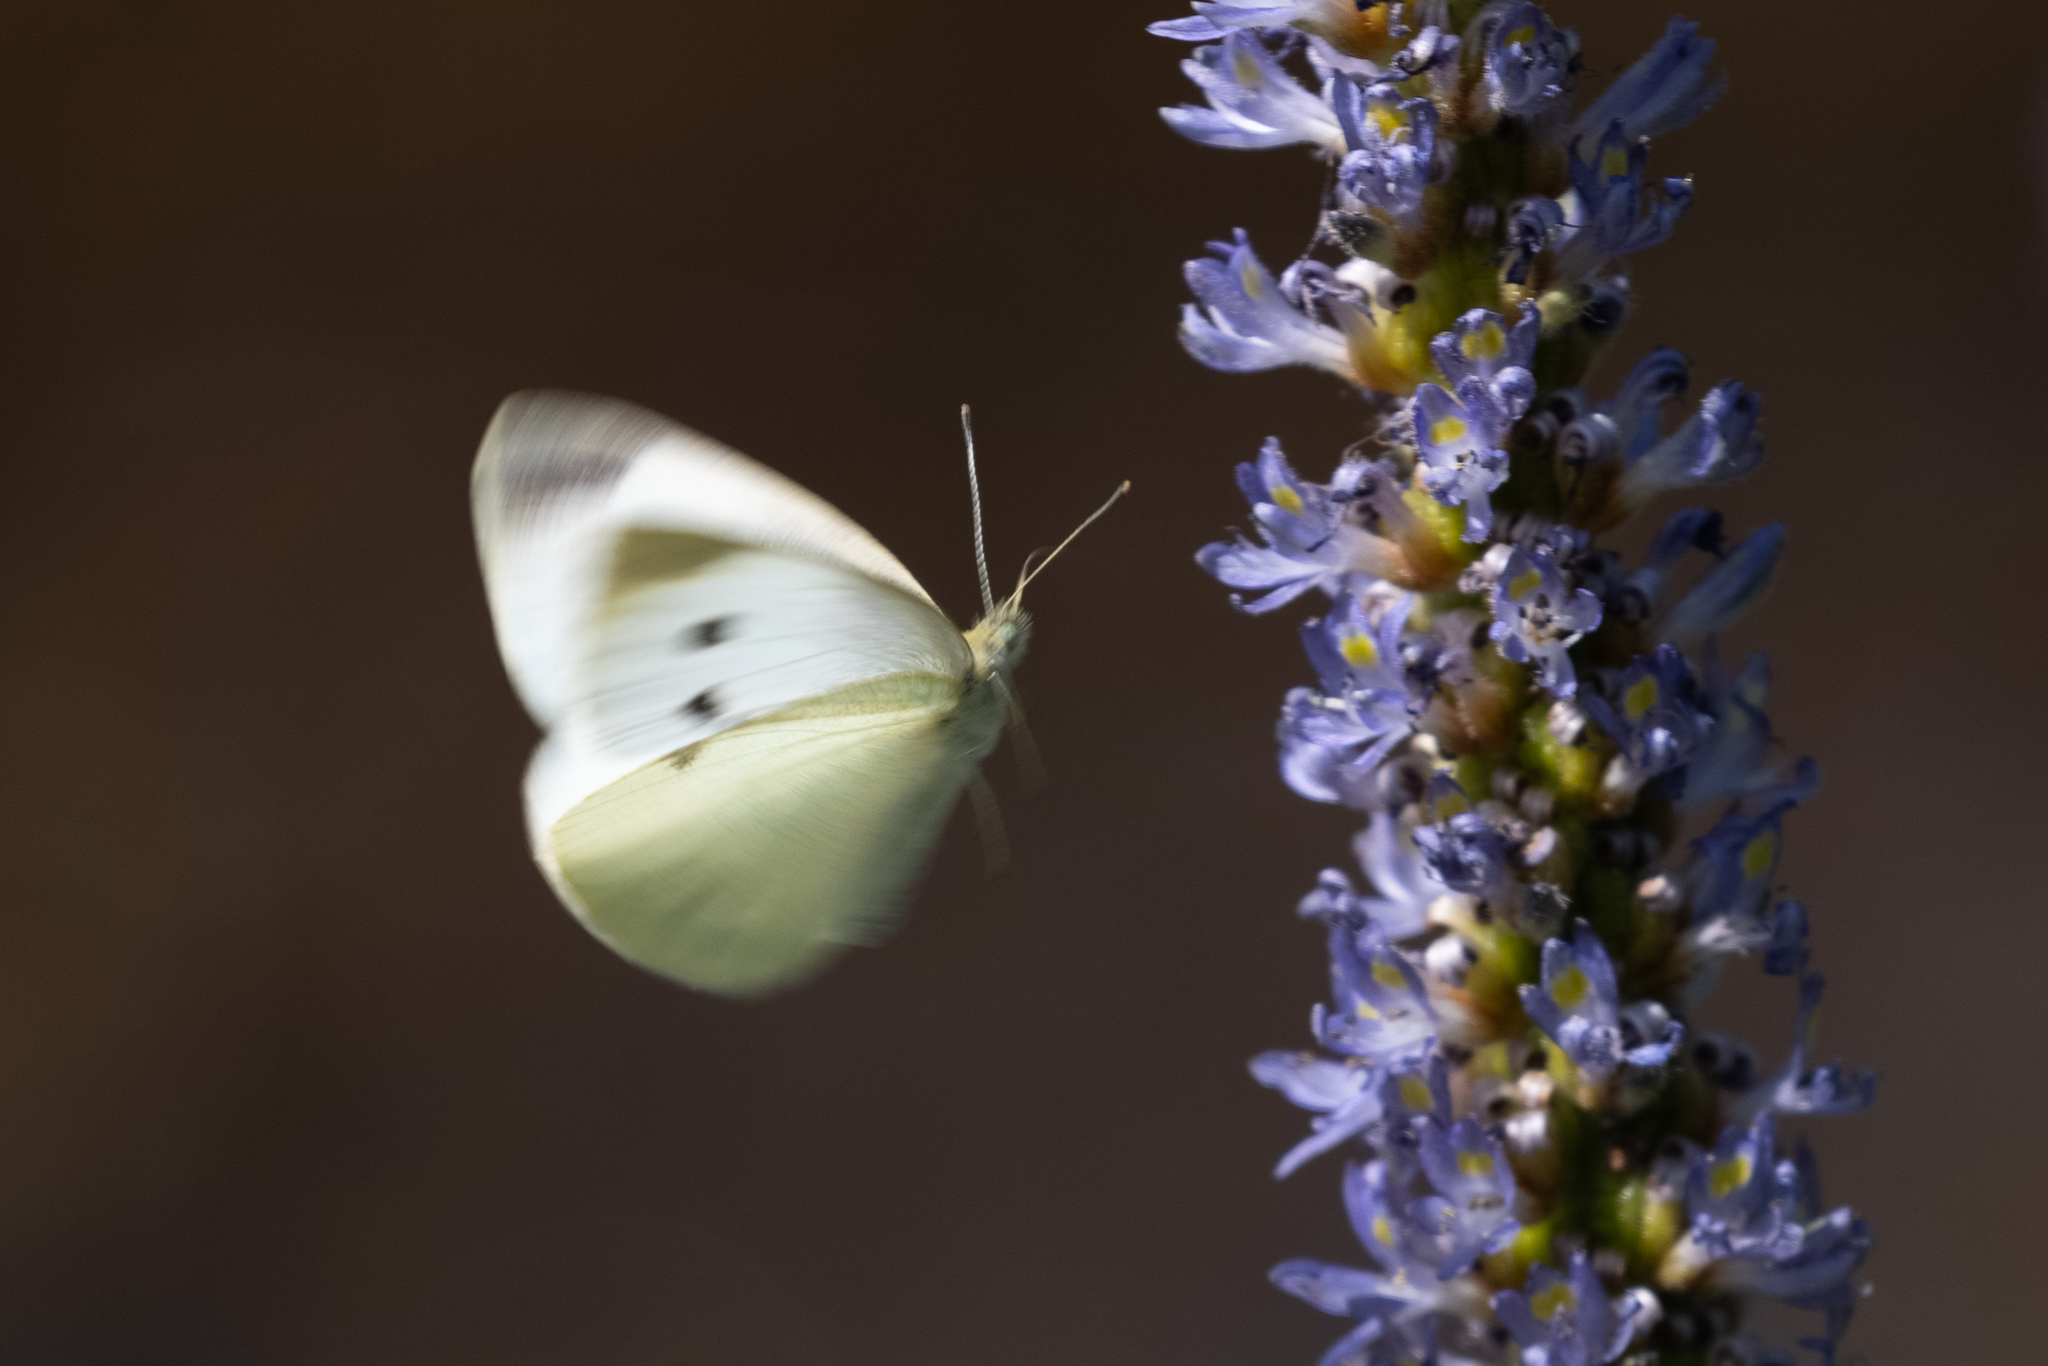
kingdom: Animalia
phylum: Arthropoda
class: Insecta
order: Lepidoptera
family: Pieridae
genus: Pieris
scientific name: Pieris rapae
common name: Small white
